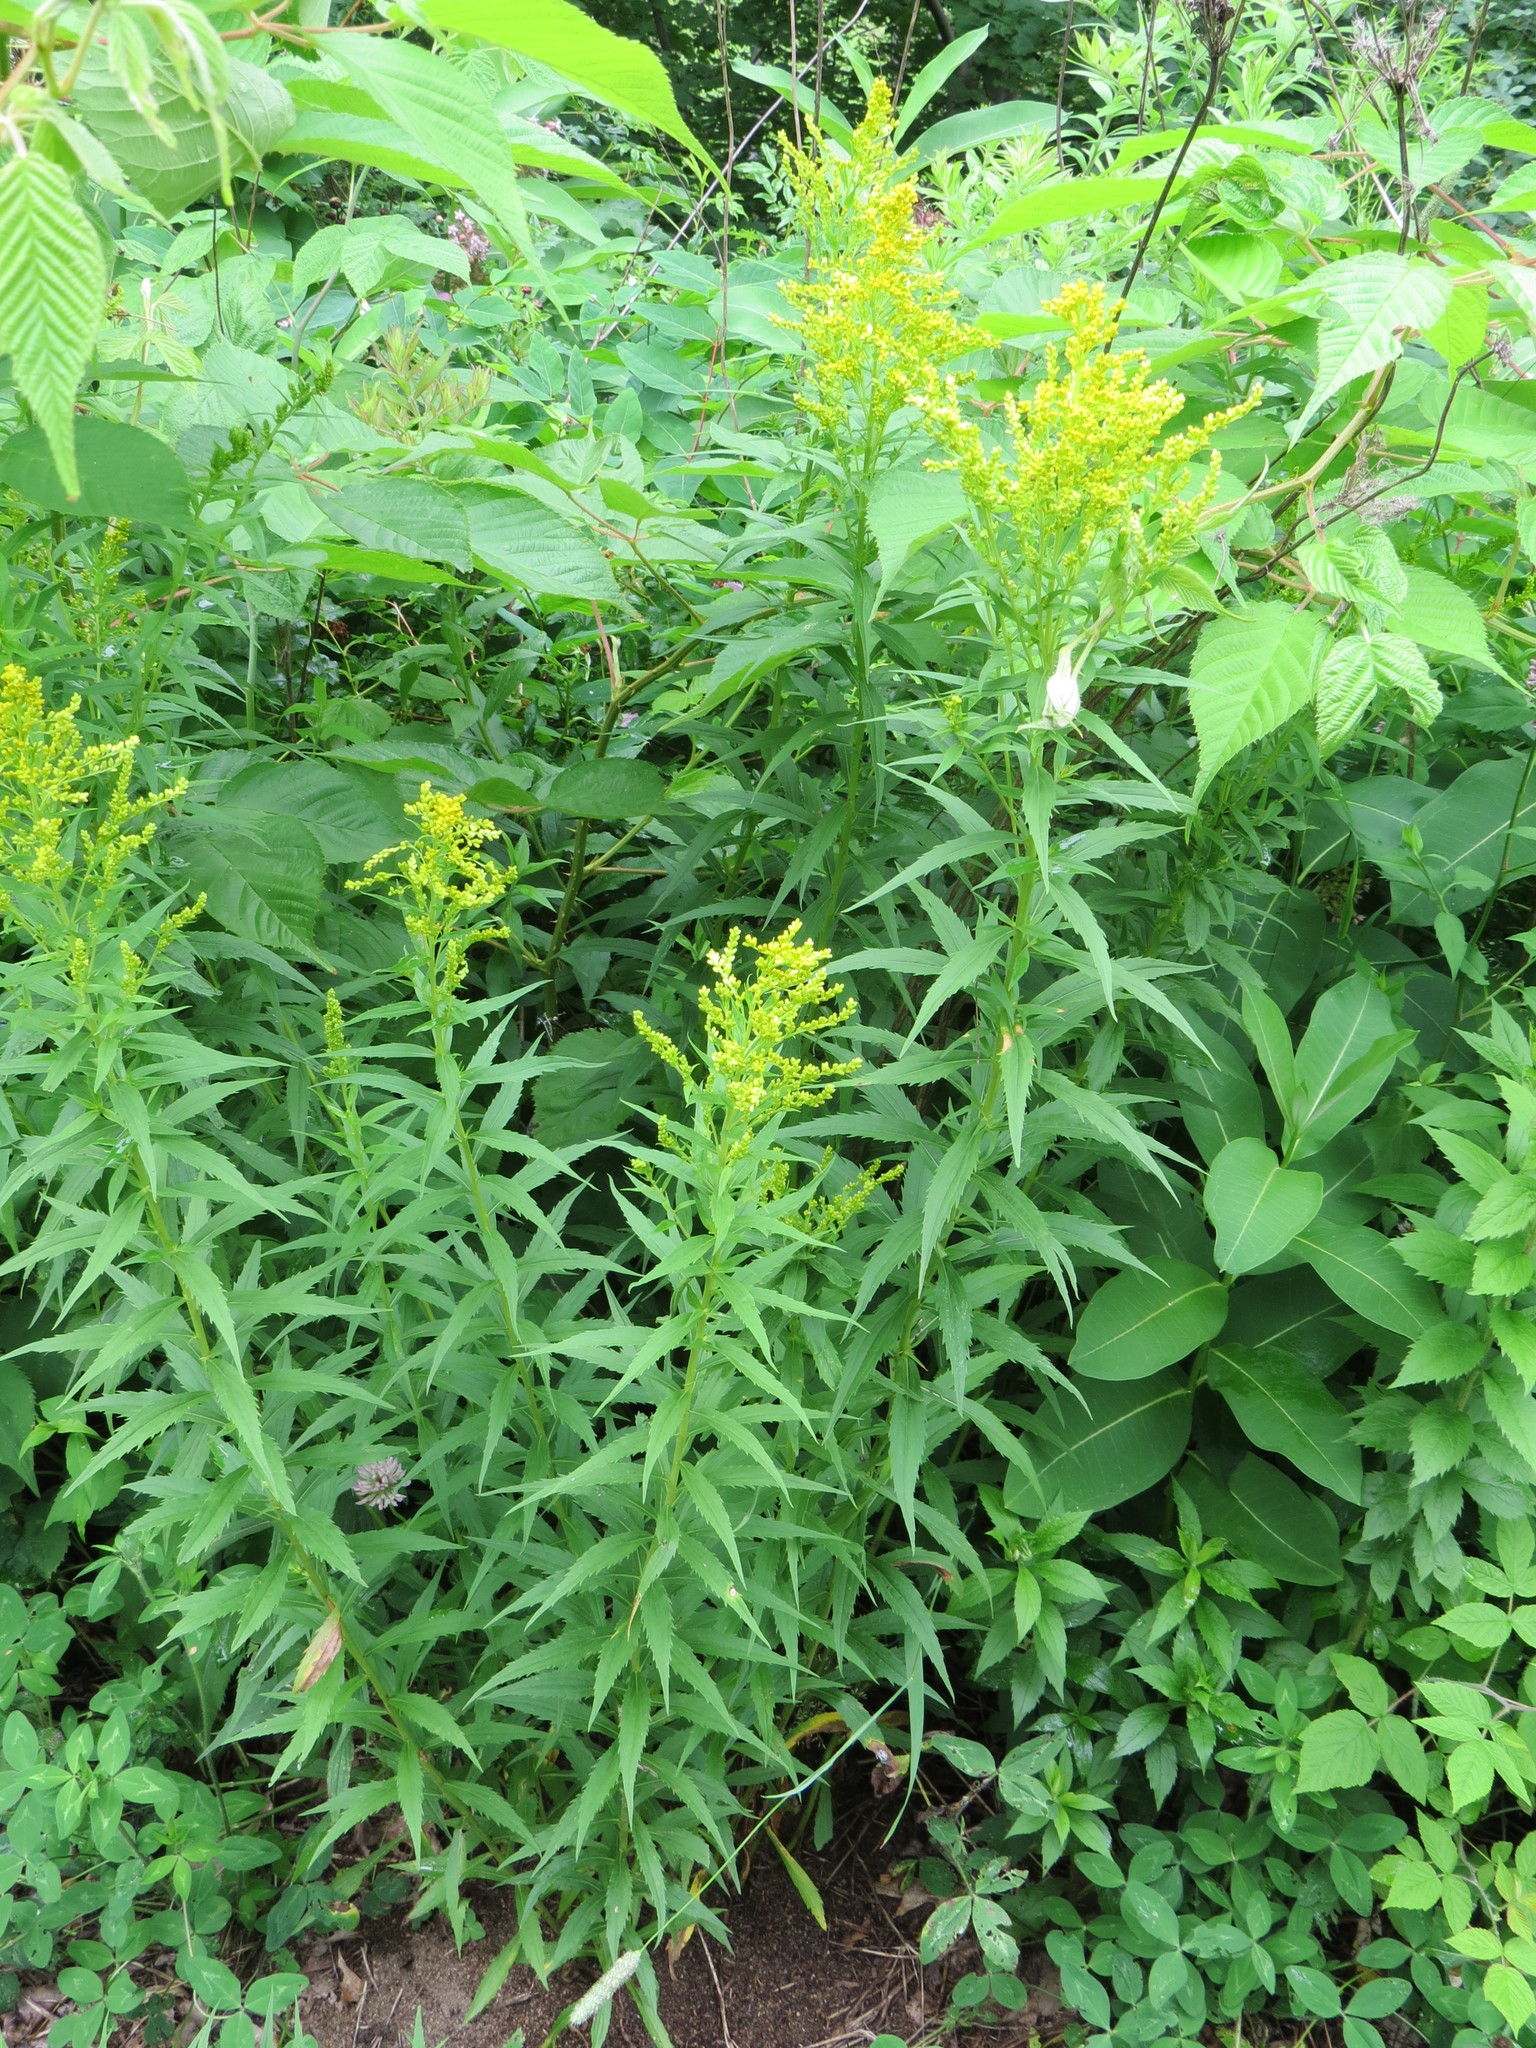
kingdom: Plantae
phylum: Tracheophyta
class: Magnoliopsida
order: Asterales
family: Asteraceae
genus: Solidago
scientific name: Solidago canadensis
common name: Canada goldenrod
